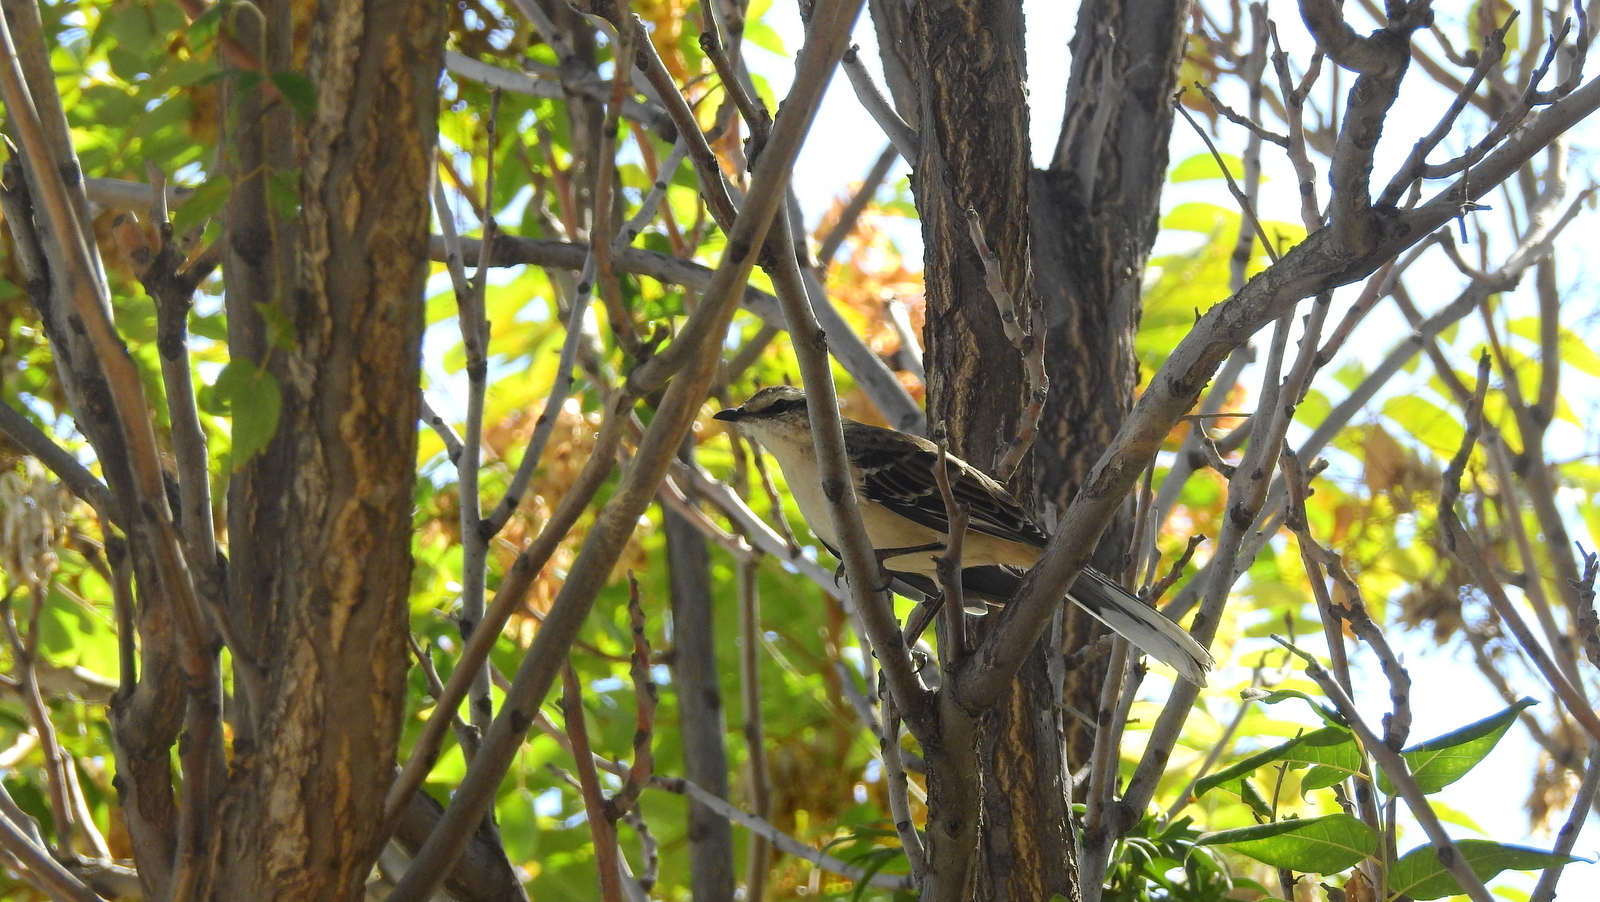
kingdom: Animalia
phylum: Chordata
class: Aves
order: Passeriformes
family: Mimidae
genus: Mimus
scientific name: Mimus saturninus
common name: Chalk-browed mockingbird
